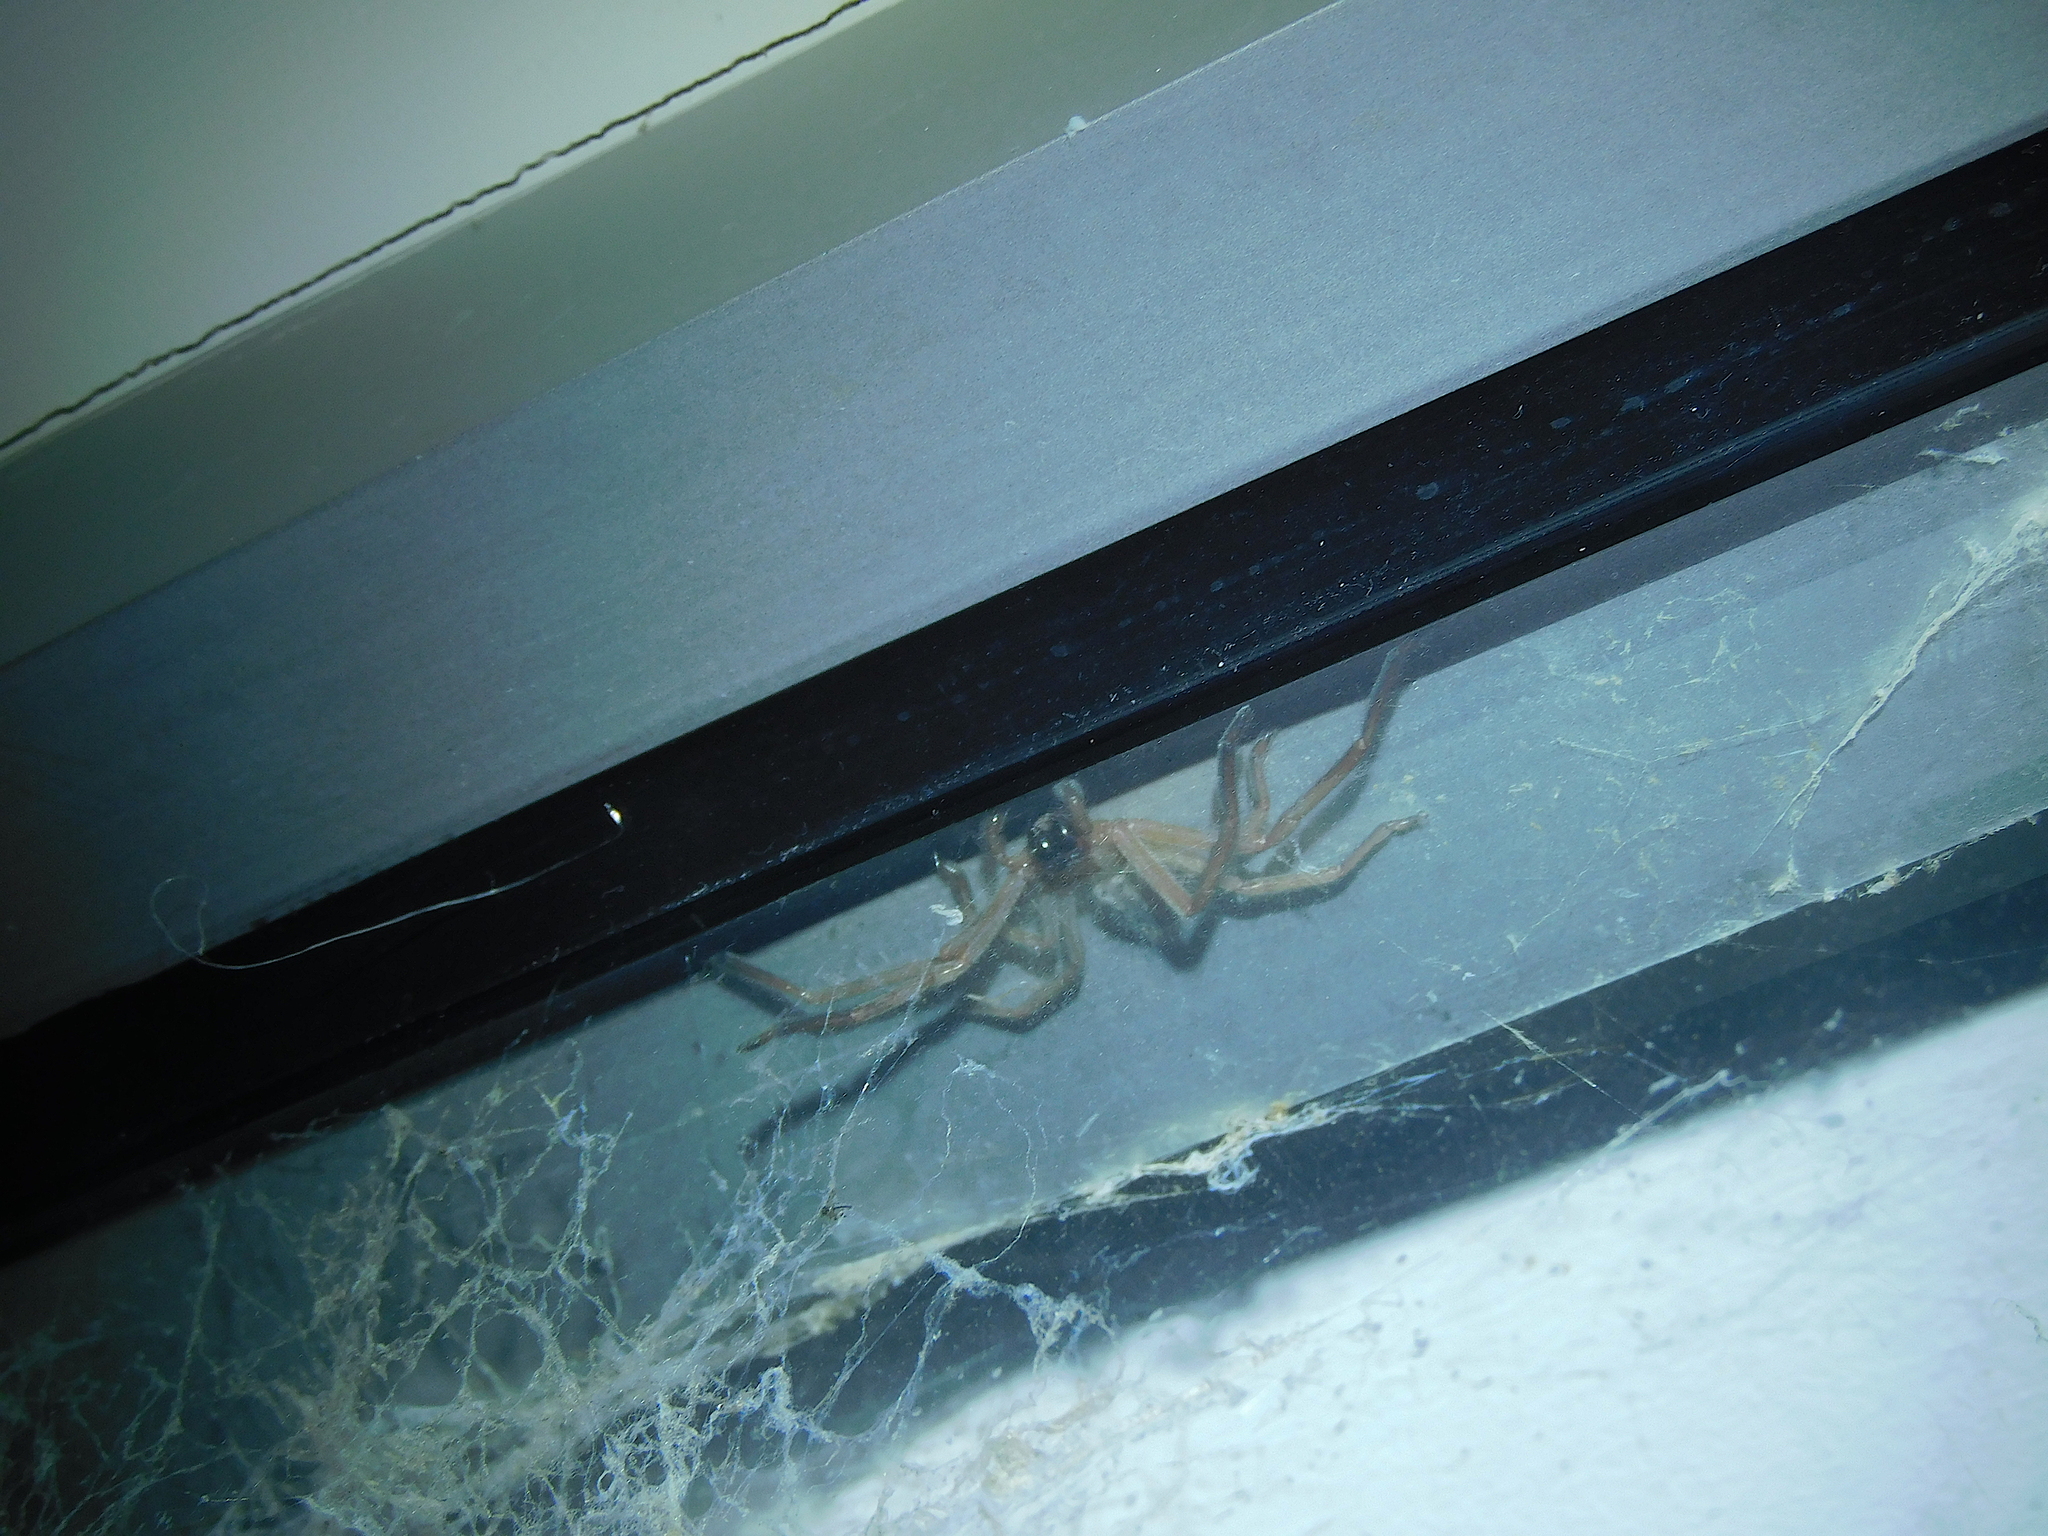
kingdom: Animalia
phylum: Arthropoda
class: Arachnida
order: Araneae
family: Sparassidae
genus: Delena
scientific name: Delena cancerides
